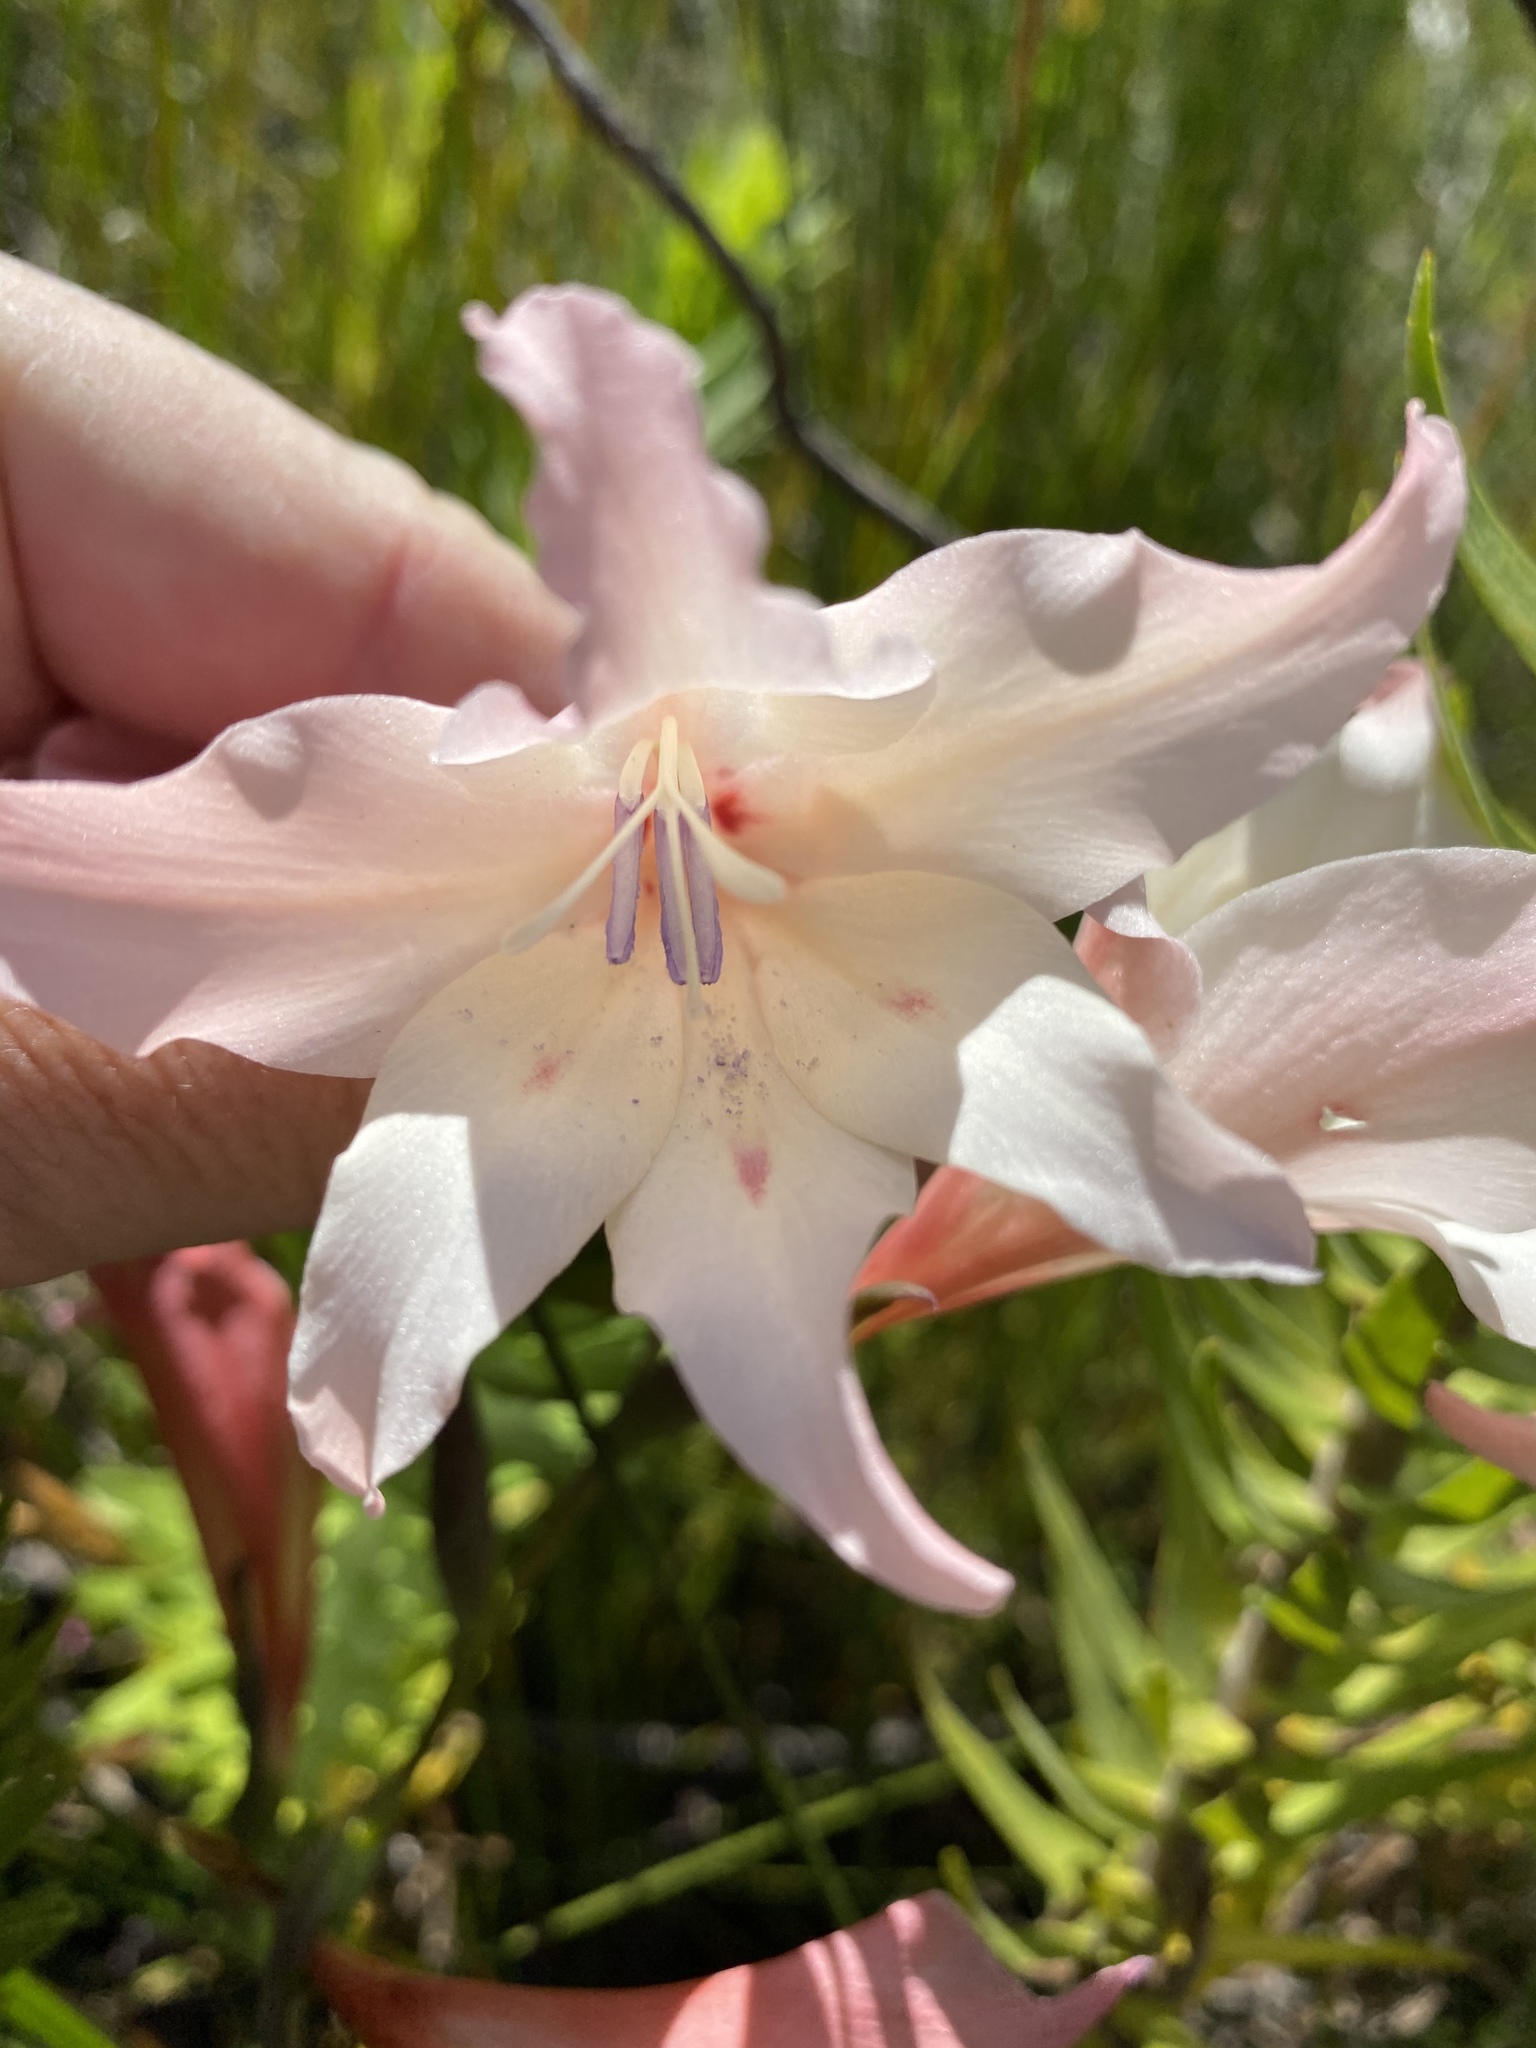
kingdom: Plantae
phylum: Tracheophyta
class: Liliopsida
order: Asparagales
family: Iridaceae
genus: Gladiolus
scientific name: Gladiolus carneus
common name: Painted-lady
